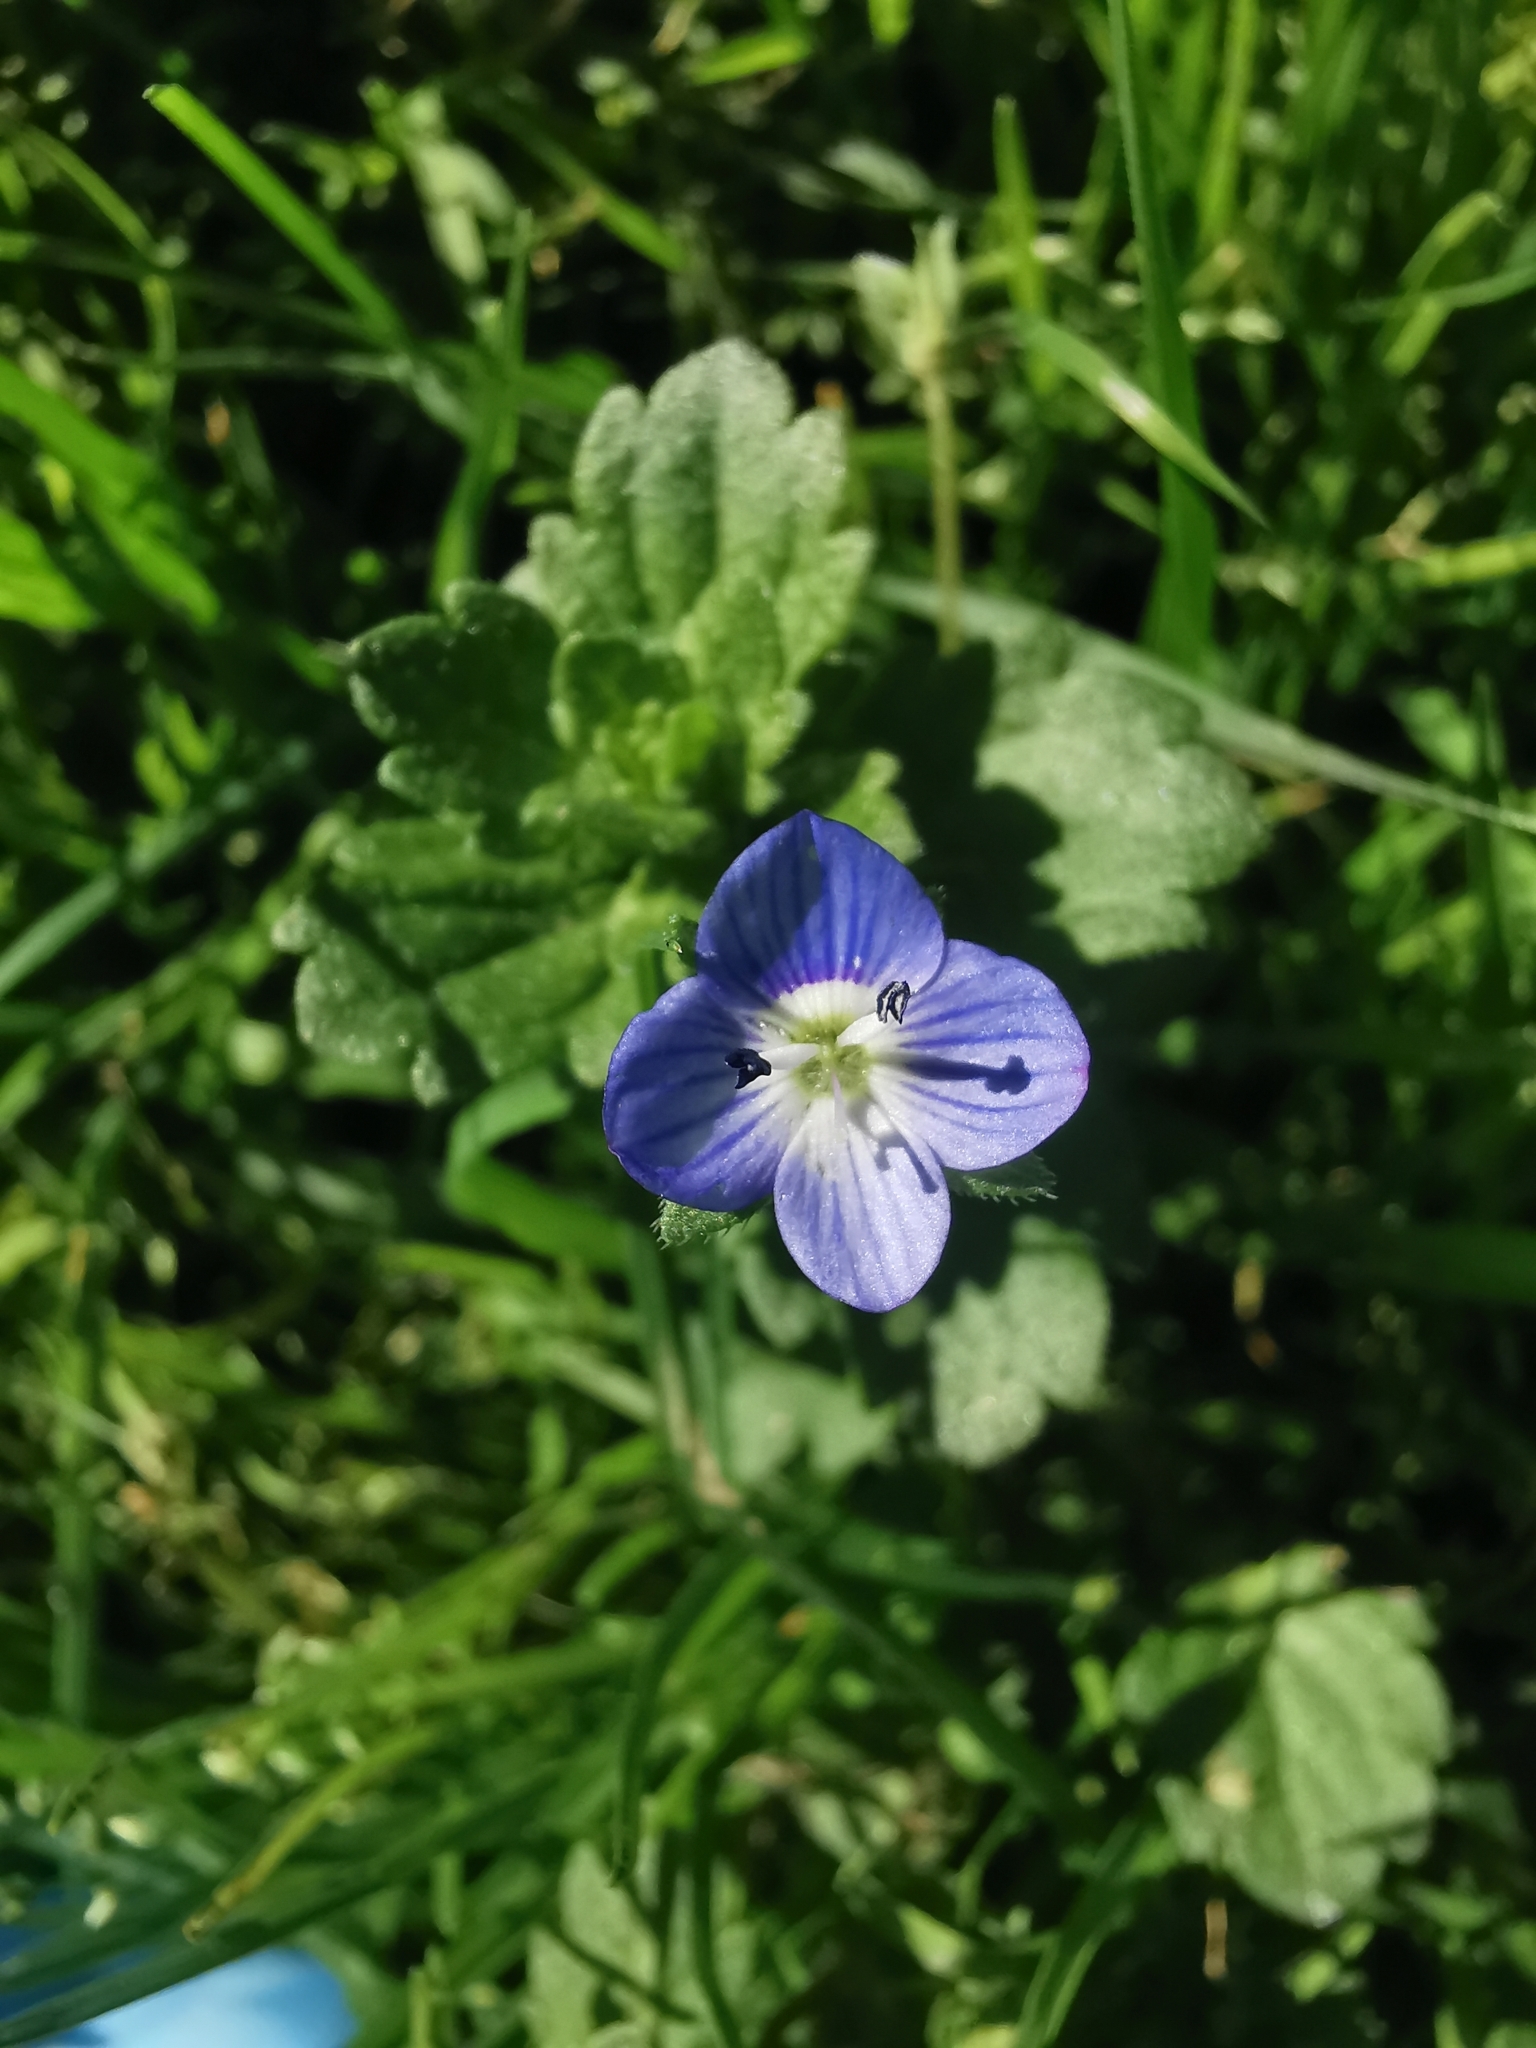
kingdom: Plantae
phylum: Tracheophyta
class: Magnoliopsida
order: Lamiales
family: Plantaginaceae
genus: Veronica
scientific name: Veronica persica
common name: Common field-speedwell
